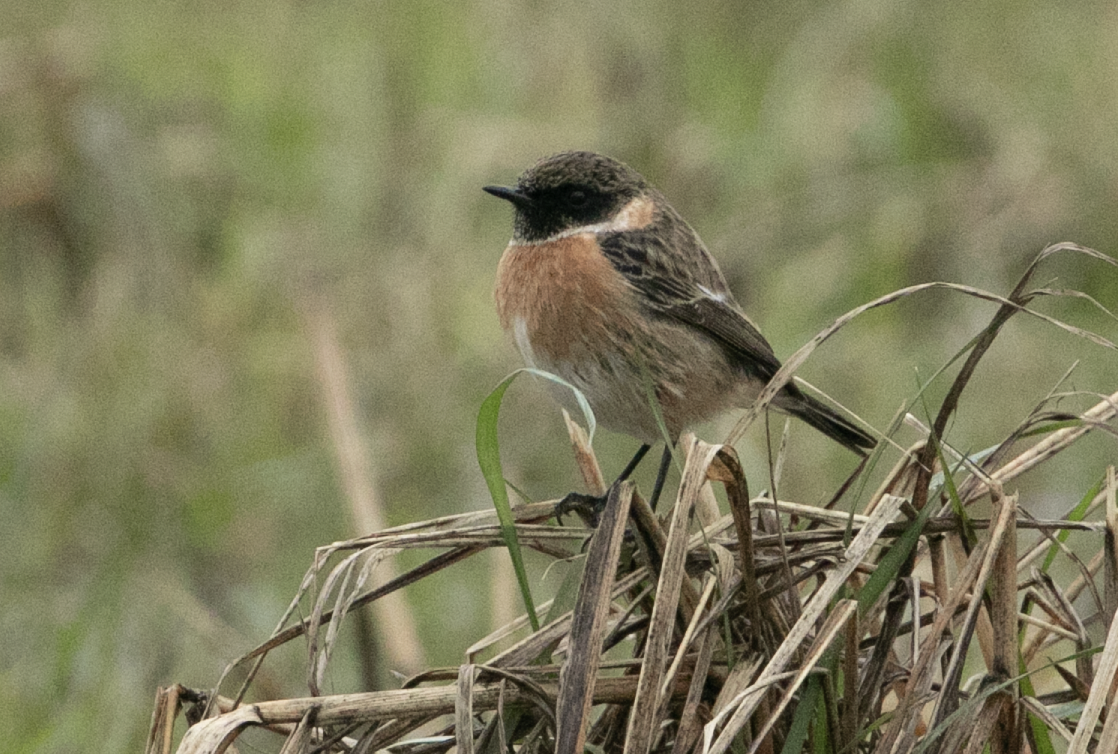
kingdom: Animalia
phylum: Chordata
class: Aves
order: Passeriformes
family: Muscicapidae
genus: Saxicola
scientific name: Saxicola rubicola
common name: European stonechat
